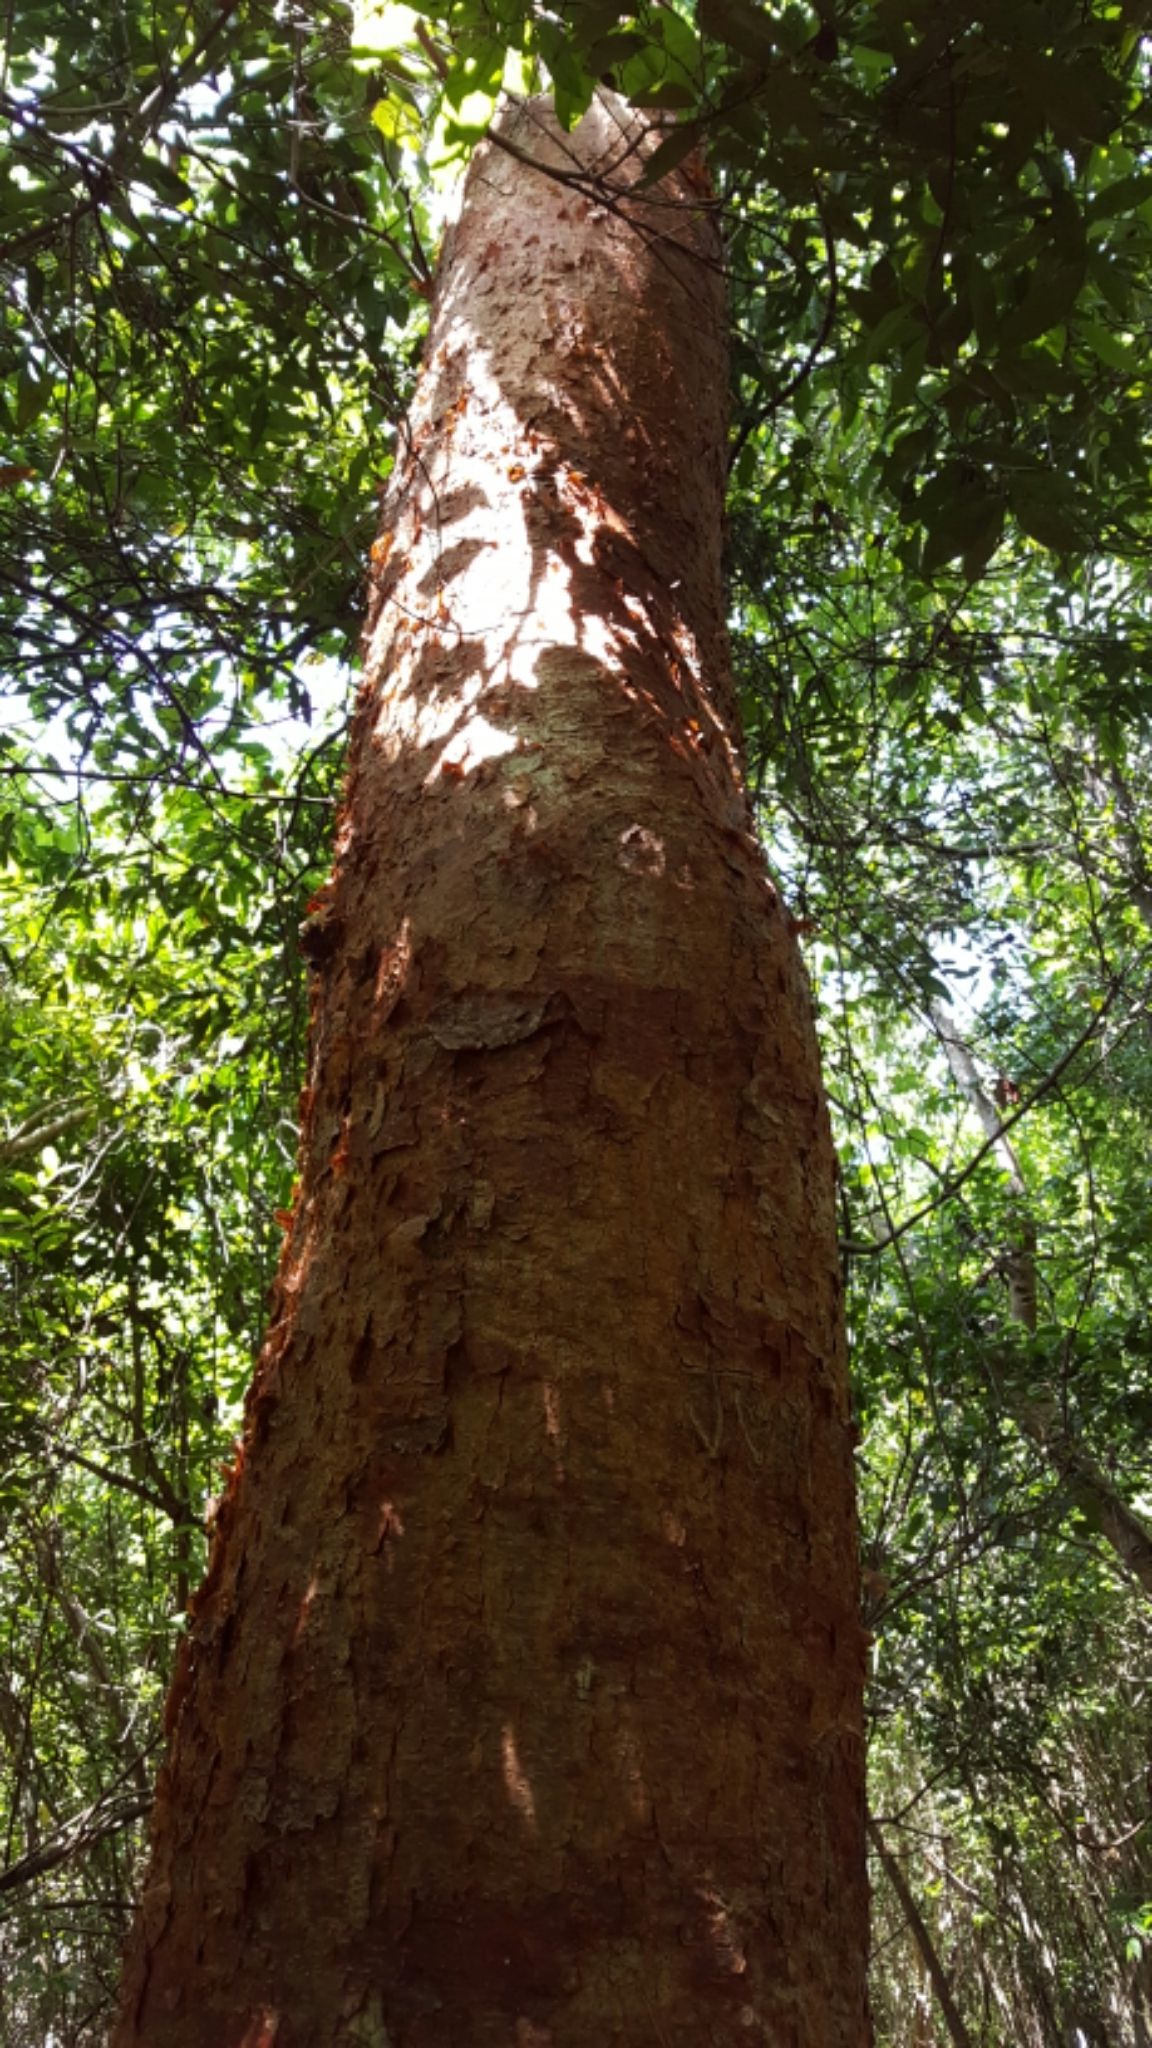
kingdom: Plantae
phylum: Tracheophyta
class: Magnoliopsida
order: Sapindales
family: Burseraceae
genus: Bursera
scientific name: Bursera simaruba
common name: Turpentine tree
